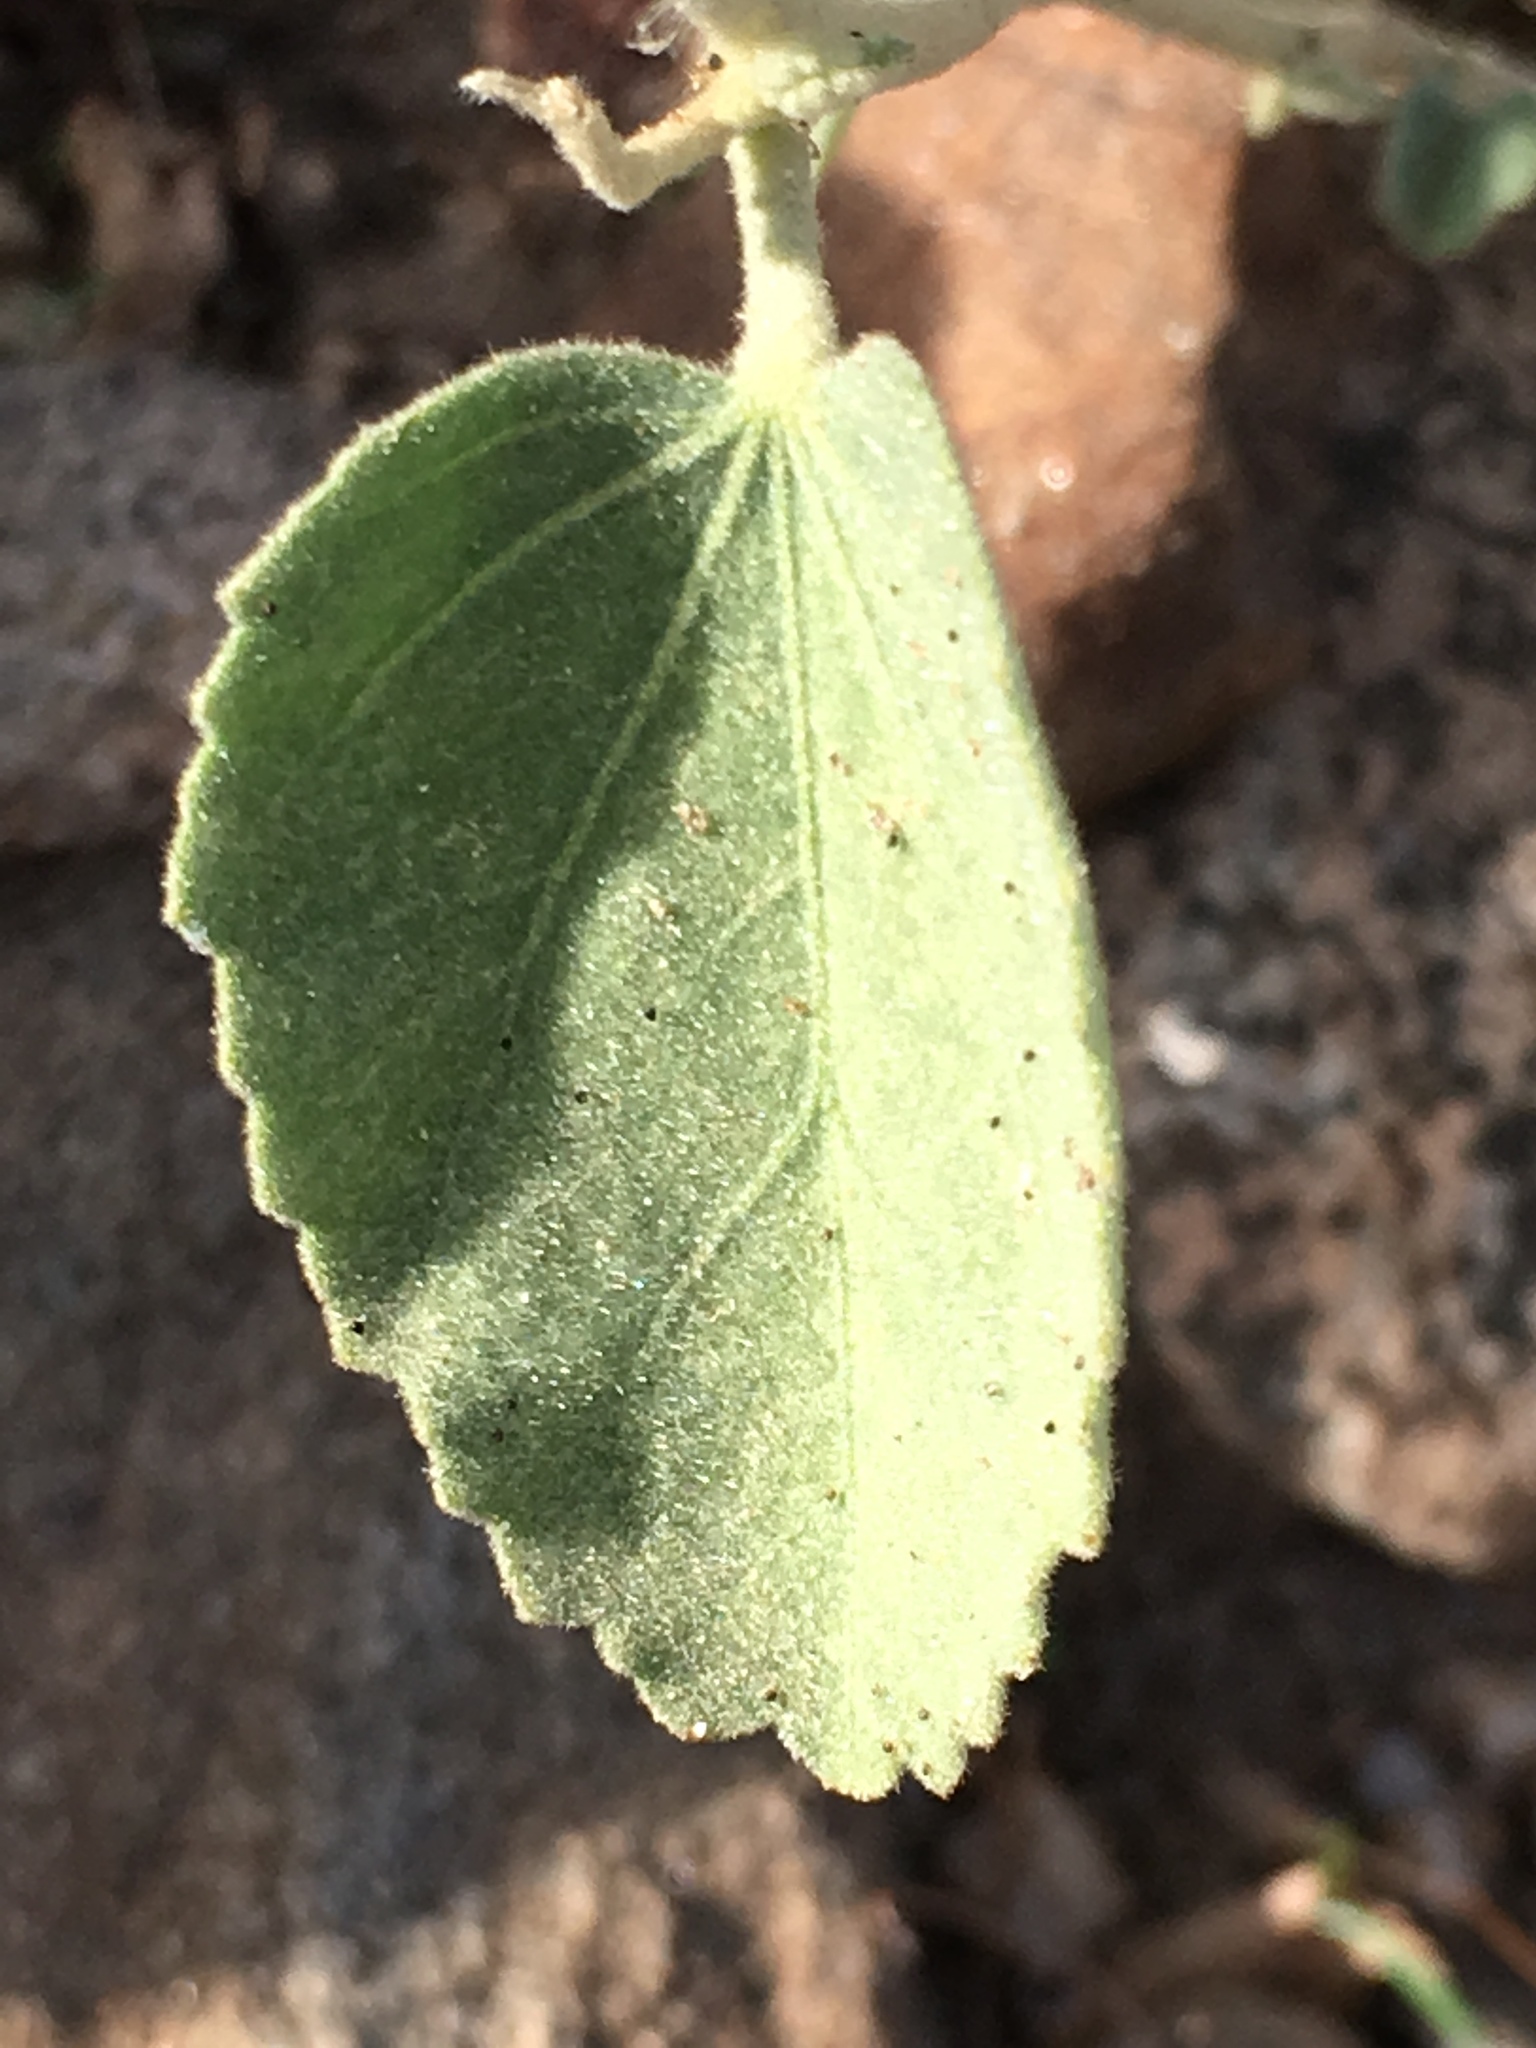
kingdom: Plantae
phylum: Tracheophyta
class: Magnoliopsida
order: Malvales
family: Malvaceae
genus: Hibiscus
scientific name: Hibiscus denudatus
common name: Paleface
